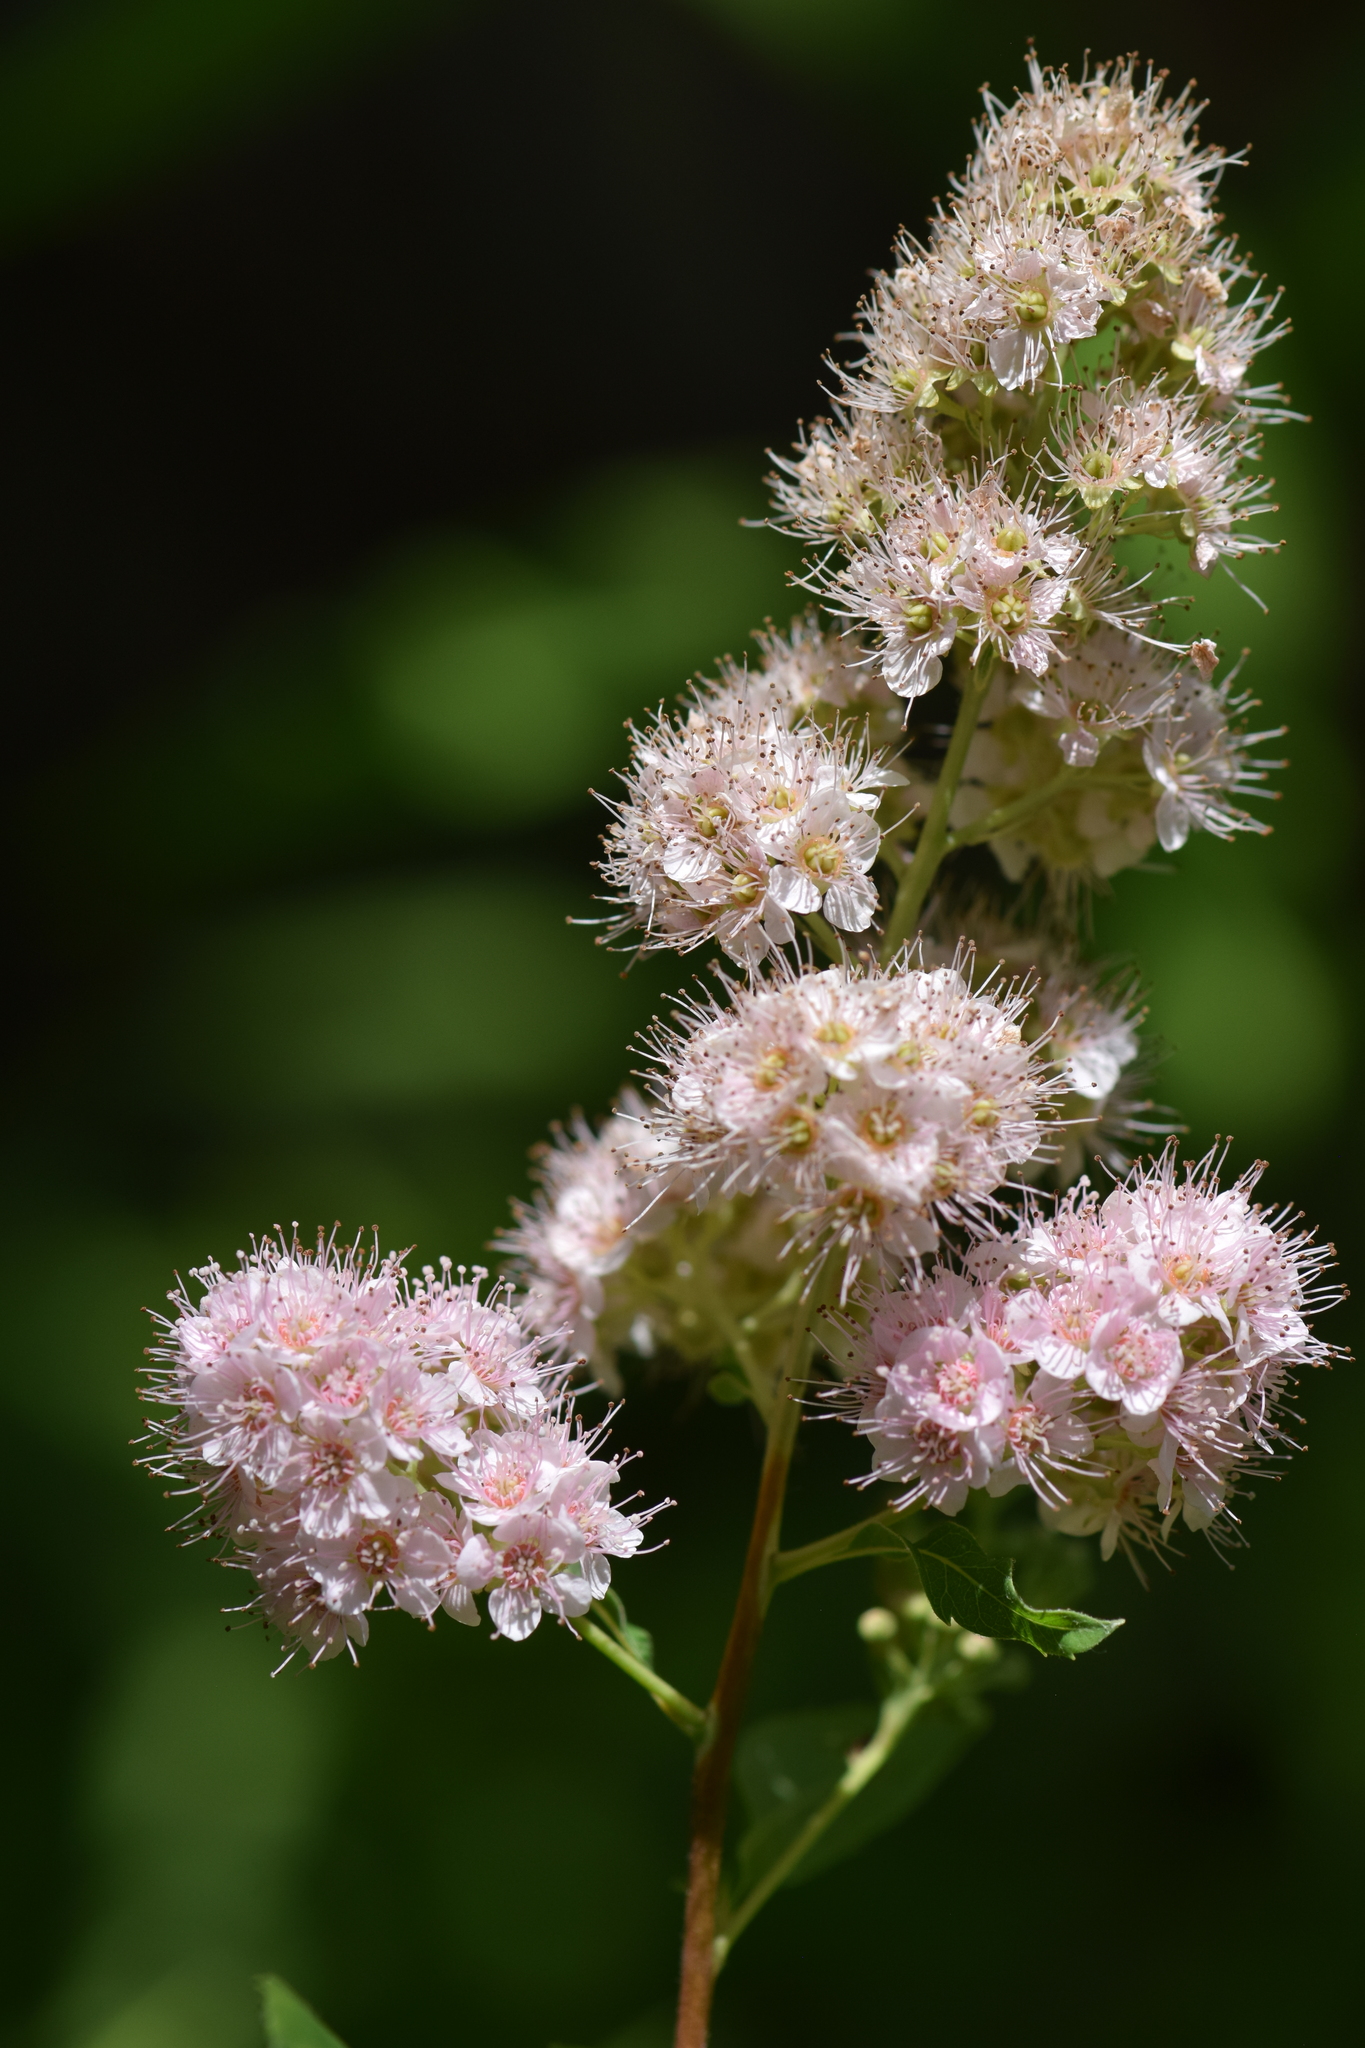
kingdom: Plantae
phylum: Tracheophyta
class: Magnoliopsida
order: Rosales
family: Rosaceae
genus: Spiraea
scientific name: Spiraea alba
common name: Pale bridewort
